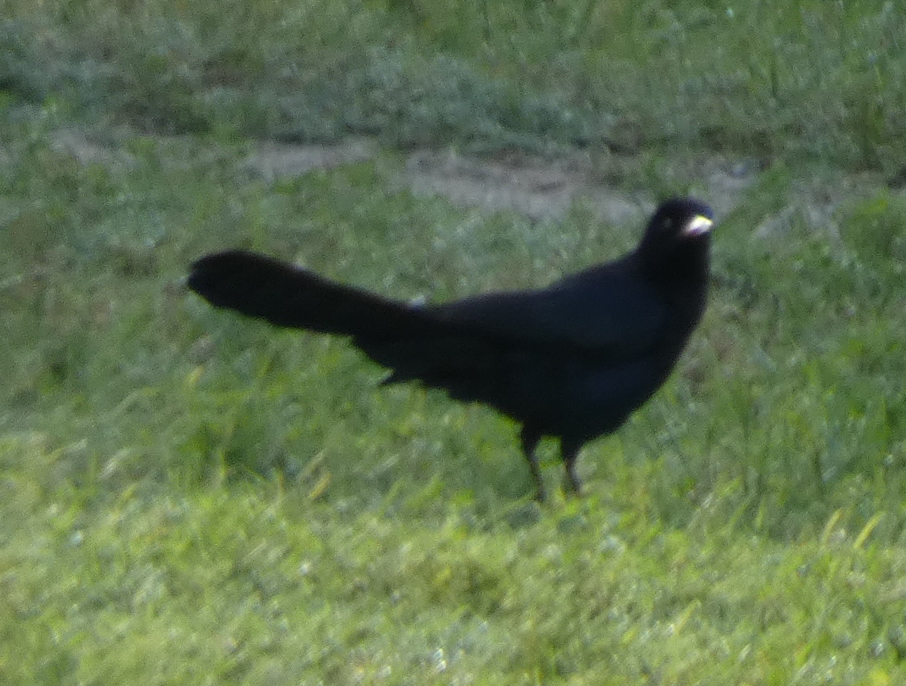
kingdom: Animalia
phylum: Chordata
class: Aves
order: Passeriformes
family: Icteridae
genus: Quiscalus
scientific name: Quiscalus mexicanus
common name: Great-tailed grackle
